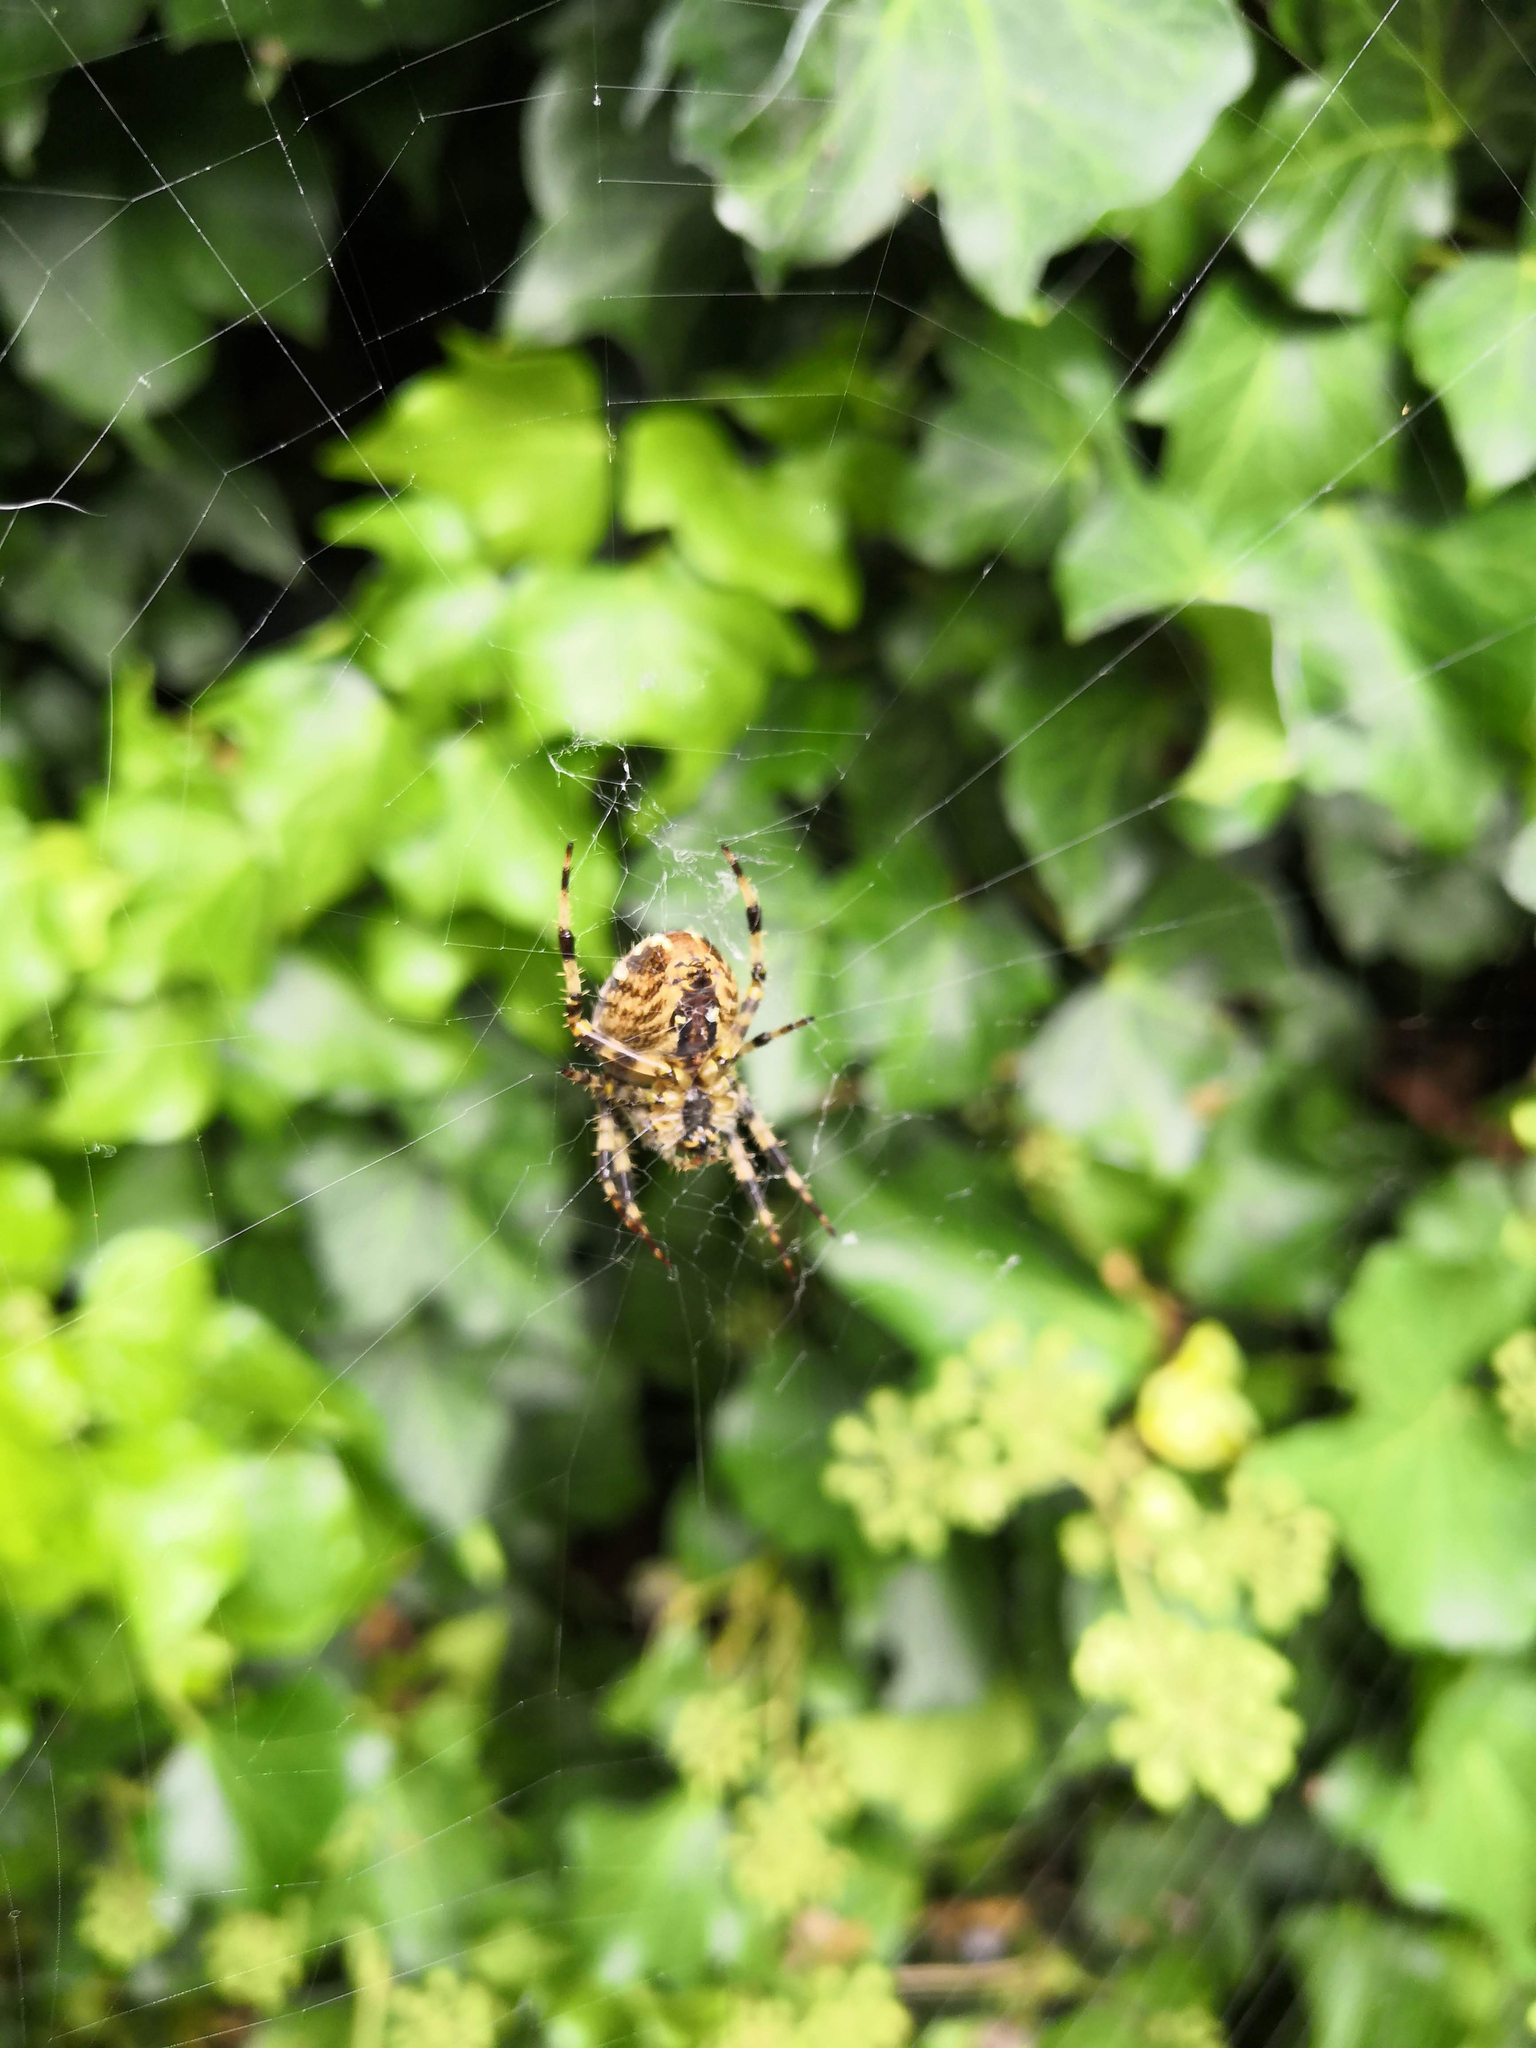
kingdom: Animalia
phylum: Arthropoda
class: Arachnida
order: Araneae
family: Araneidae
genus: Araneus
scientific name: Araneus diadematus
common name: Cross orbweaver
